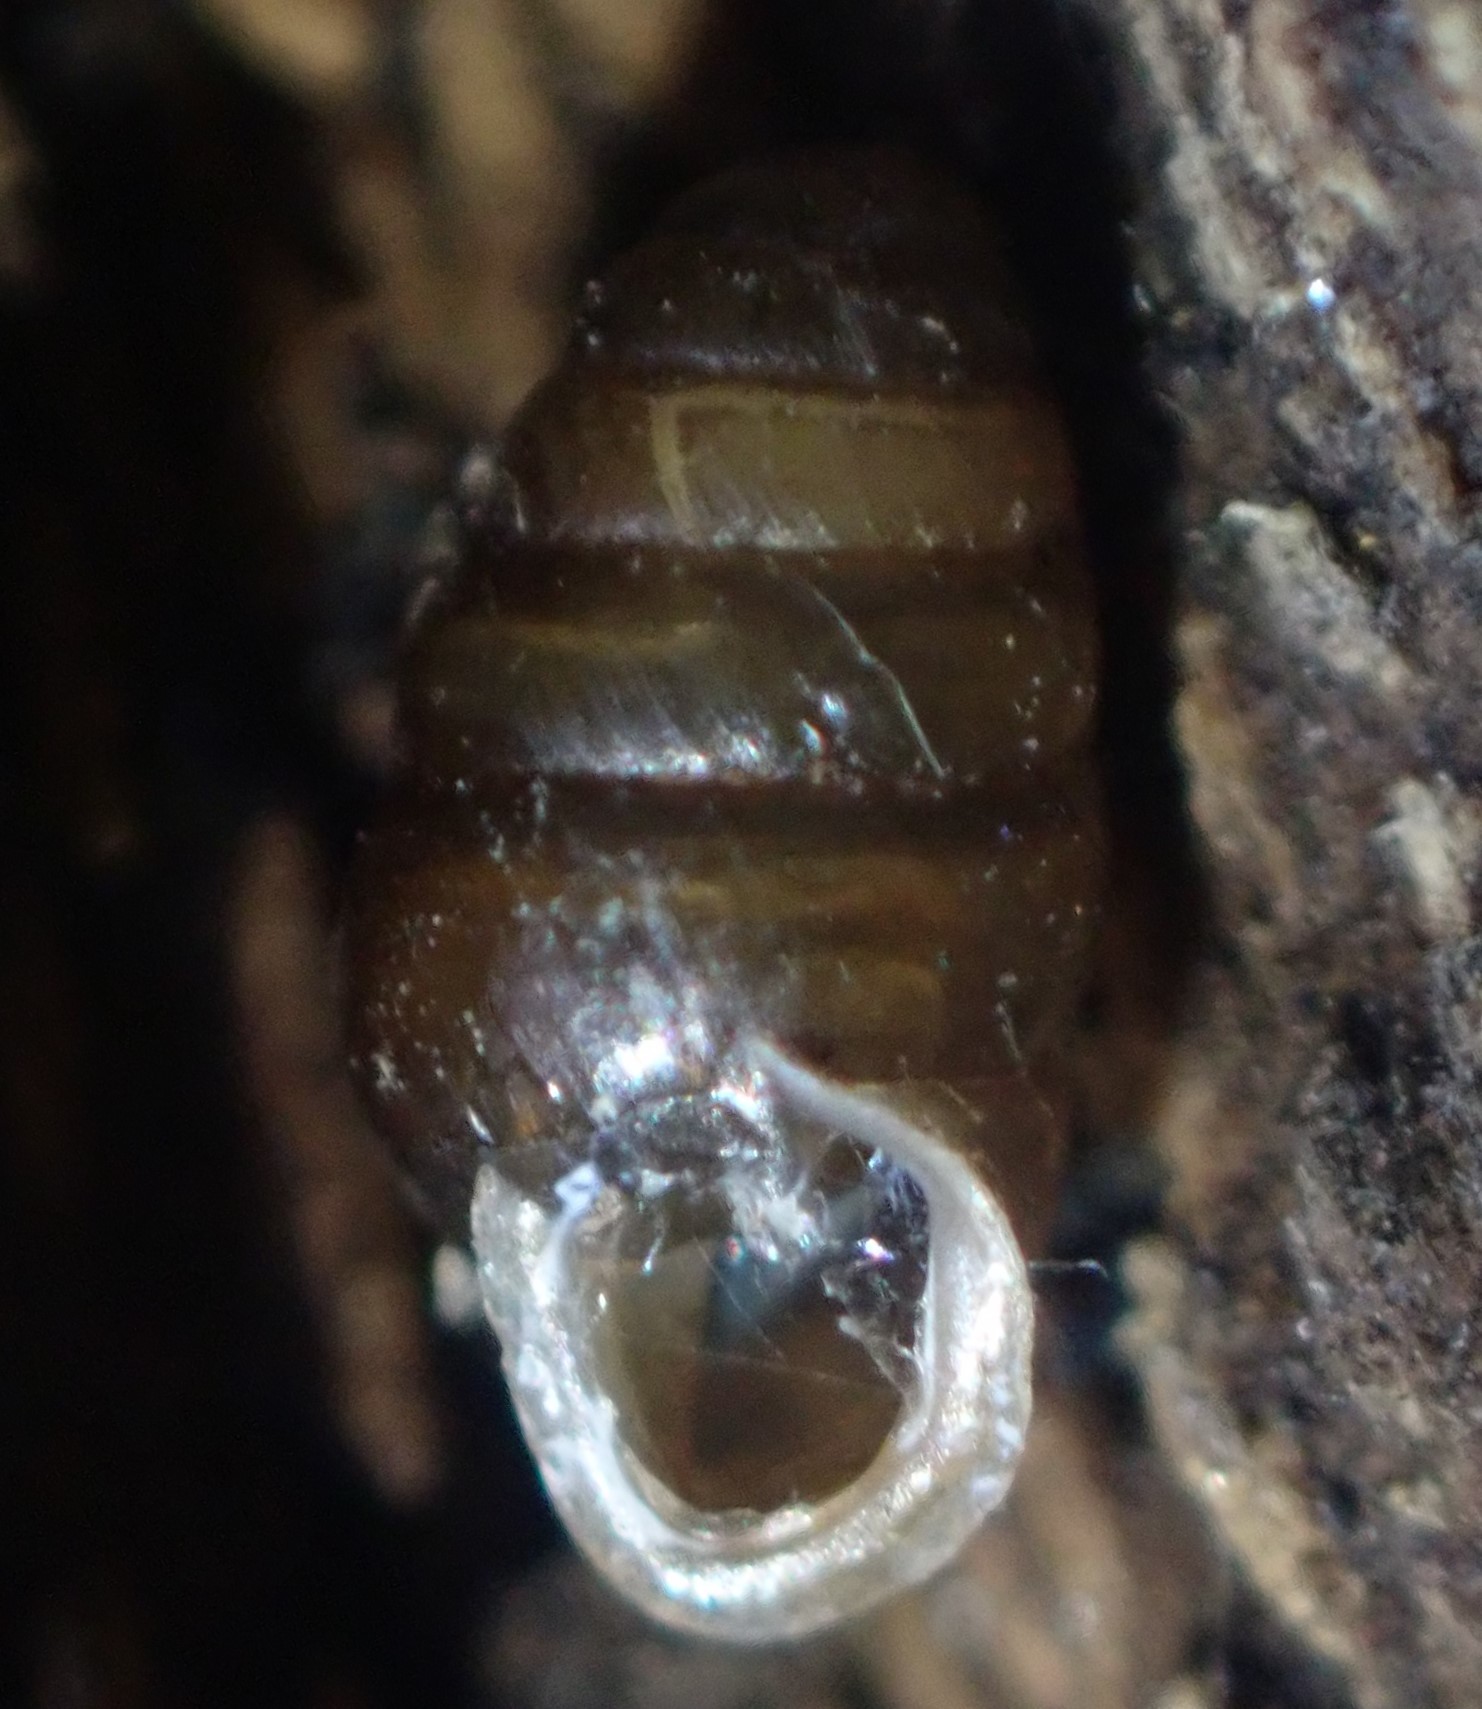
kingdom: Animalia
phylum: Mollusca
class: Gastropoda
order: Stylommatophora
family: Lauriidae
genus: Lauria
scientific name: Lauria cylindracea
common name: Common chrysalis snail
